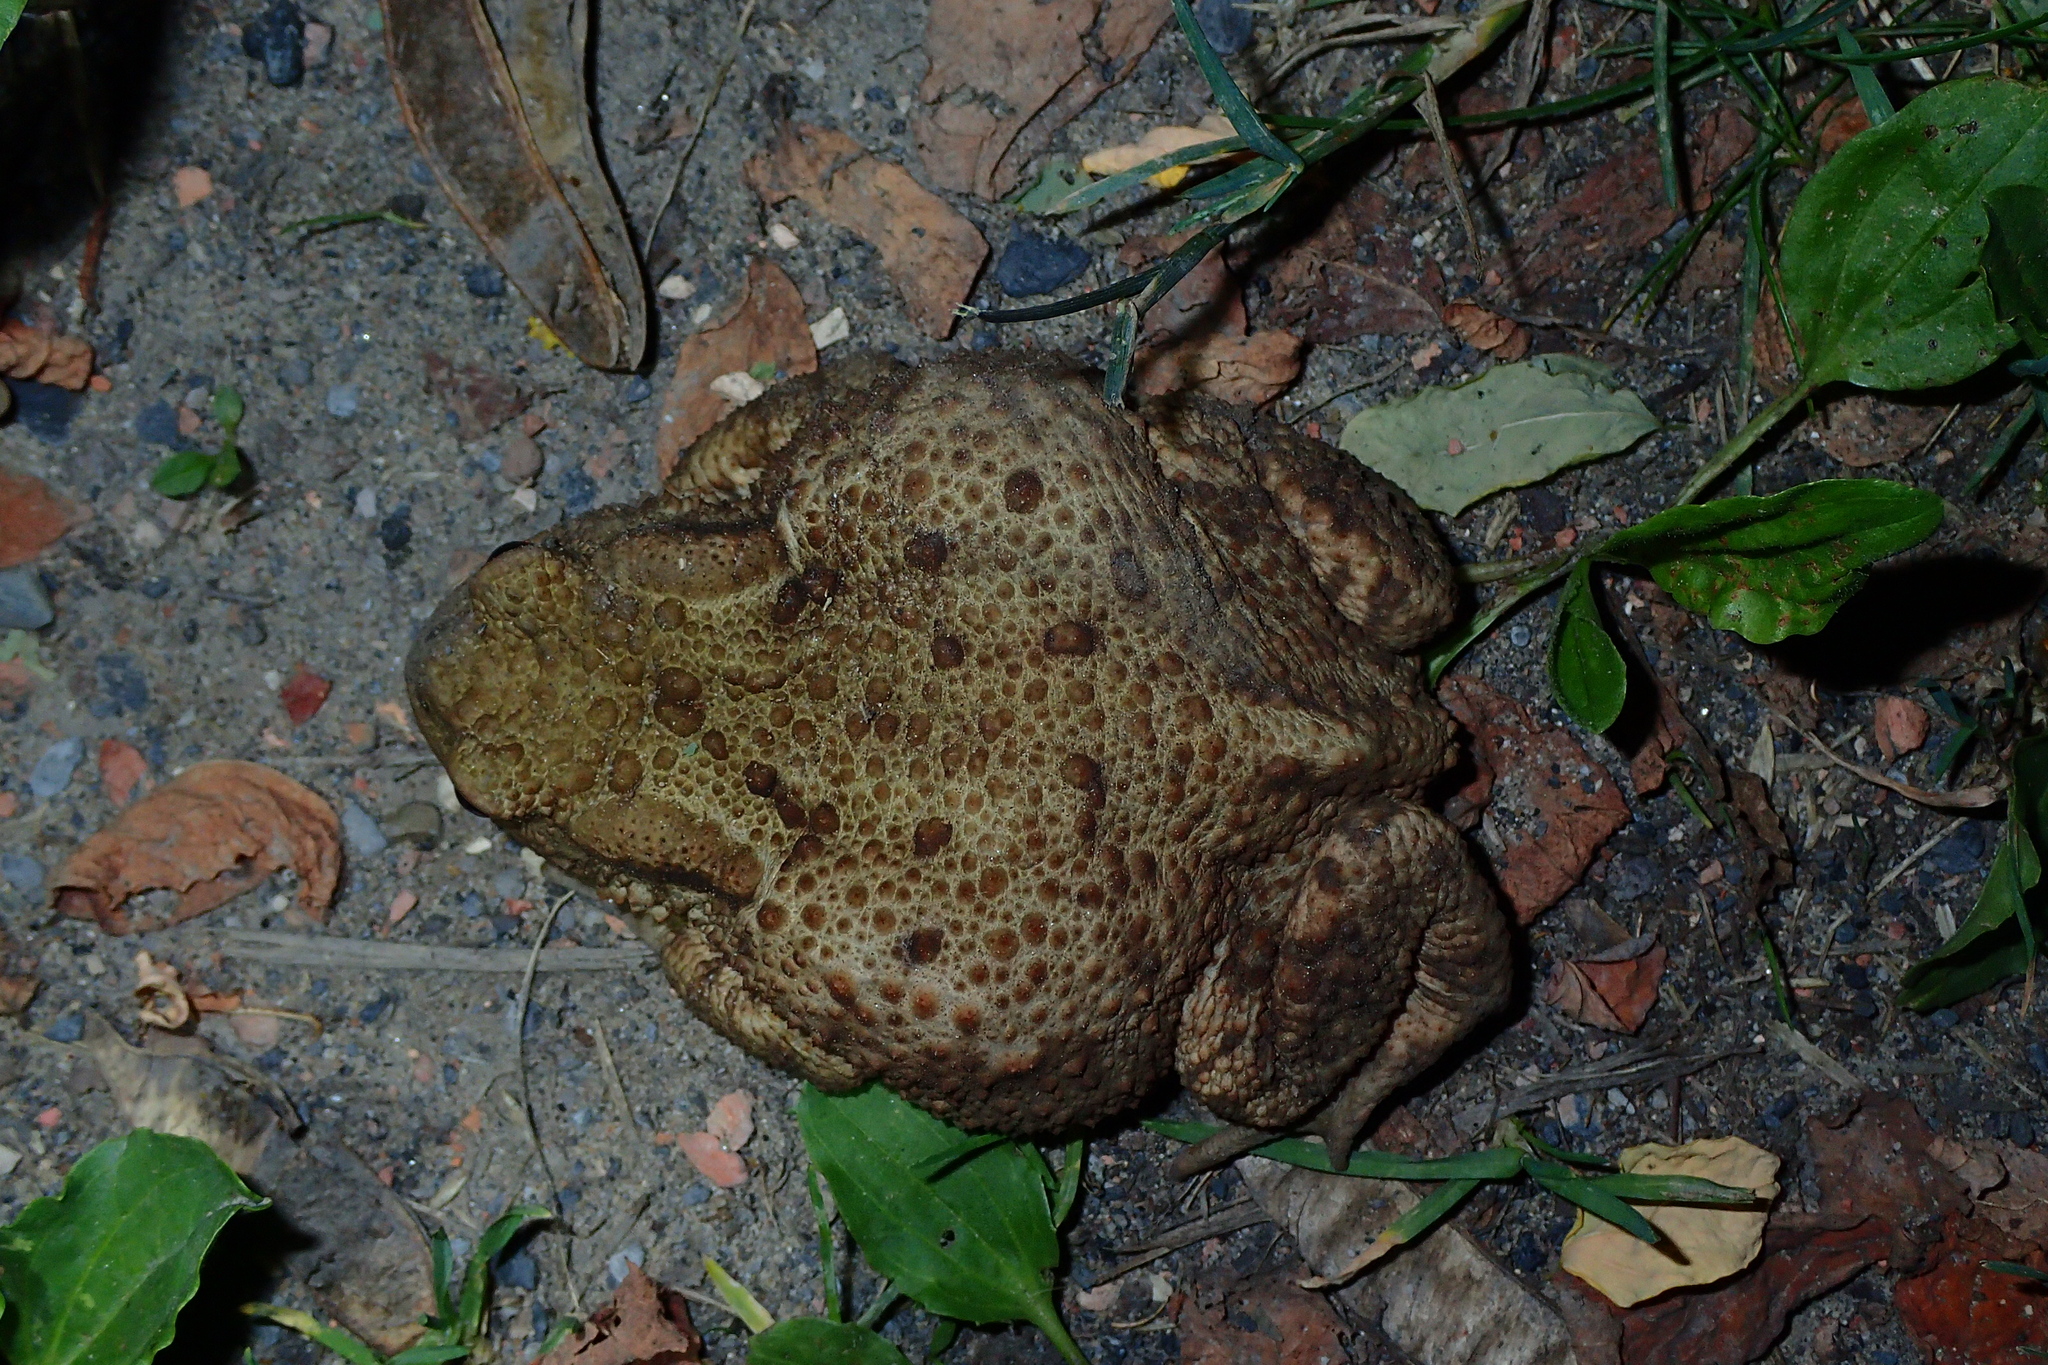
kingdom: Animalia
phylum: Chordata
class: Amphibia
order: Anura
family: Bufonidae
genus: Bufo
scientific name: Bufo bufo
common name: Common toad
